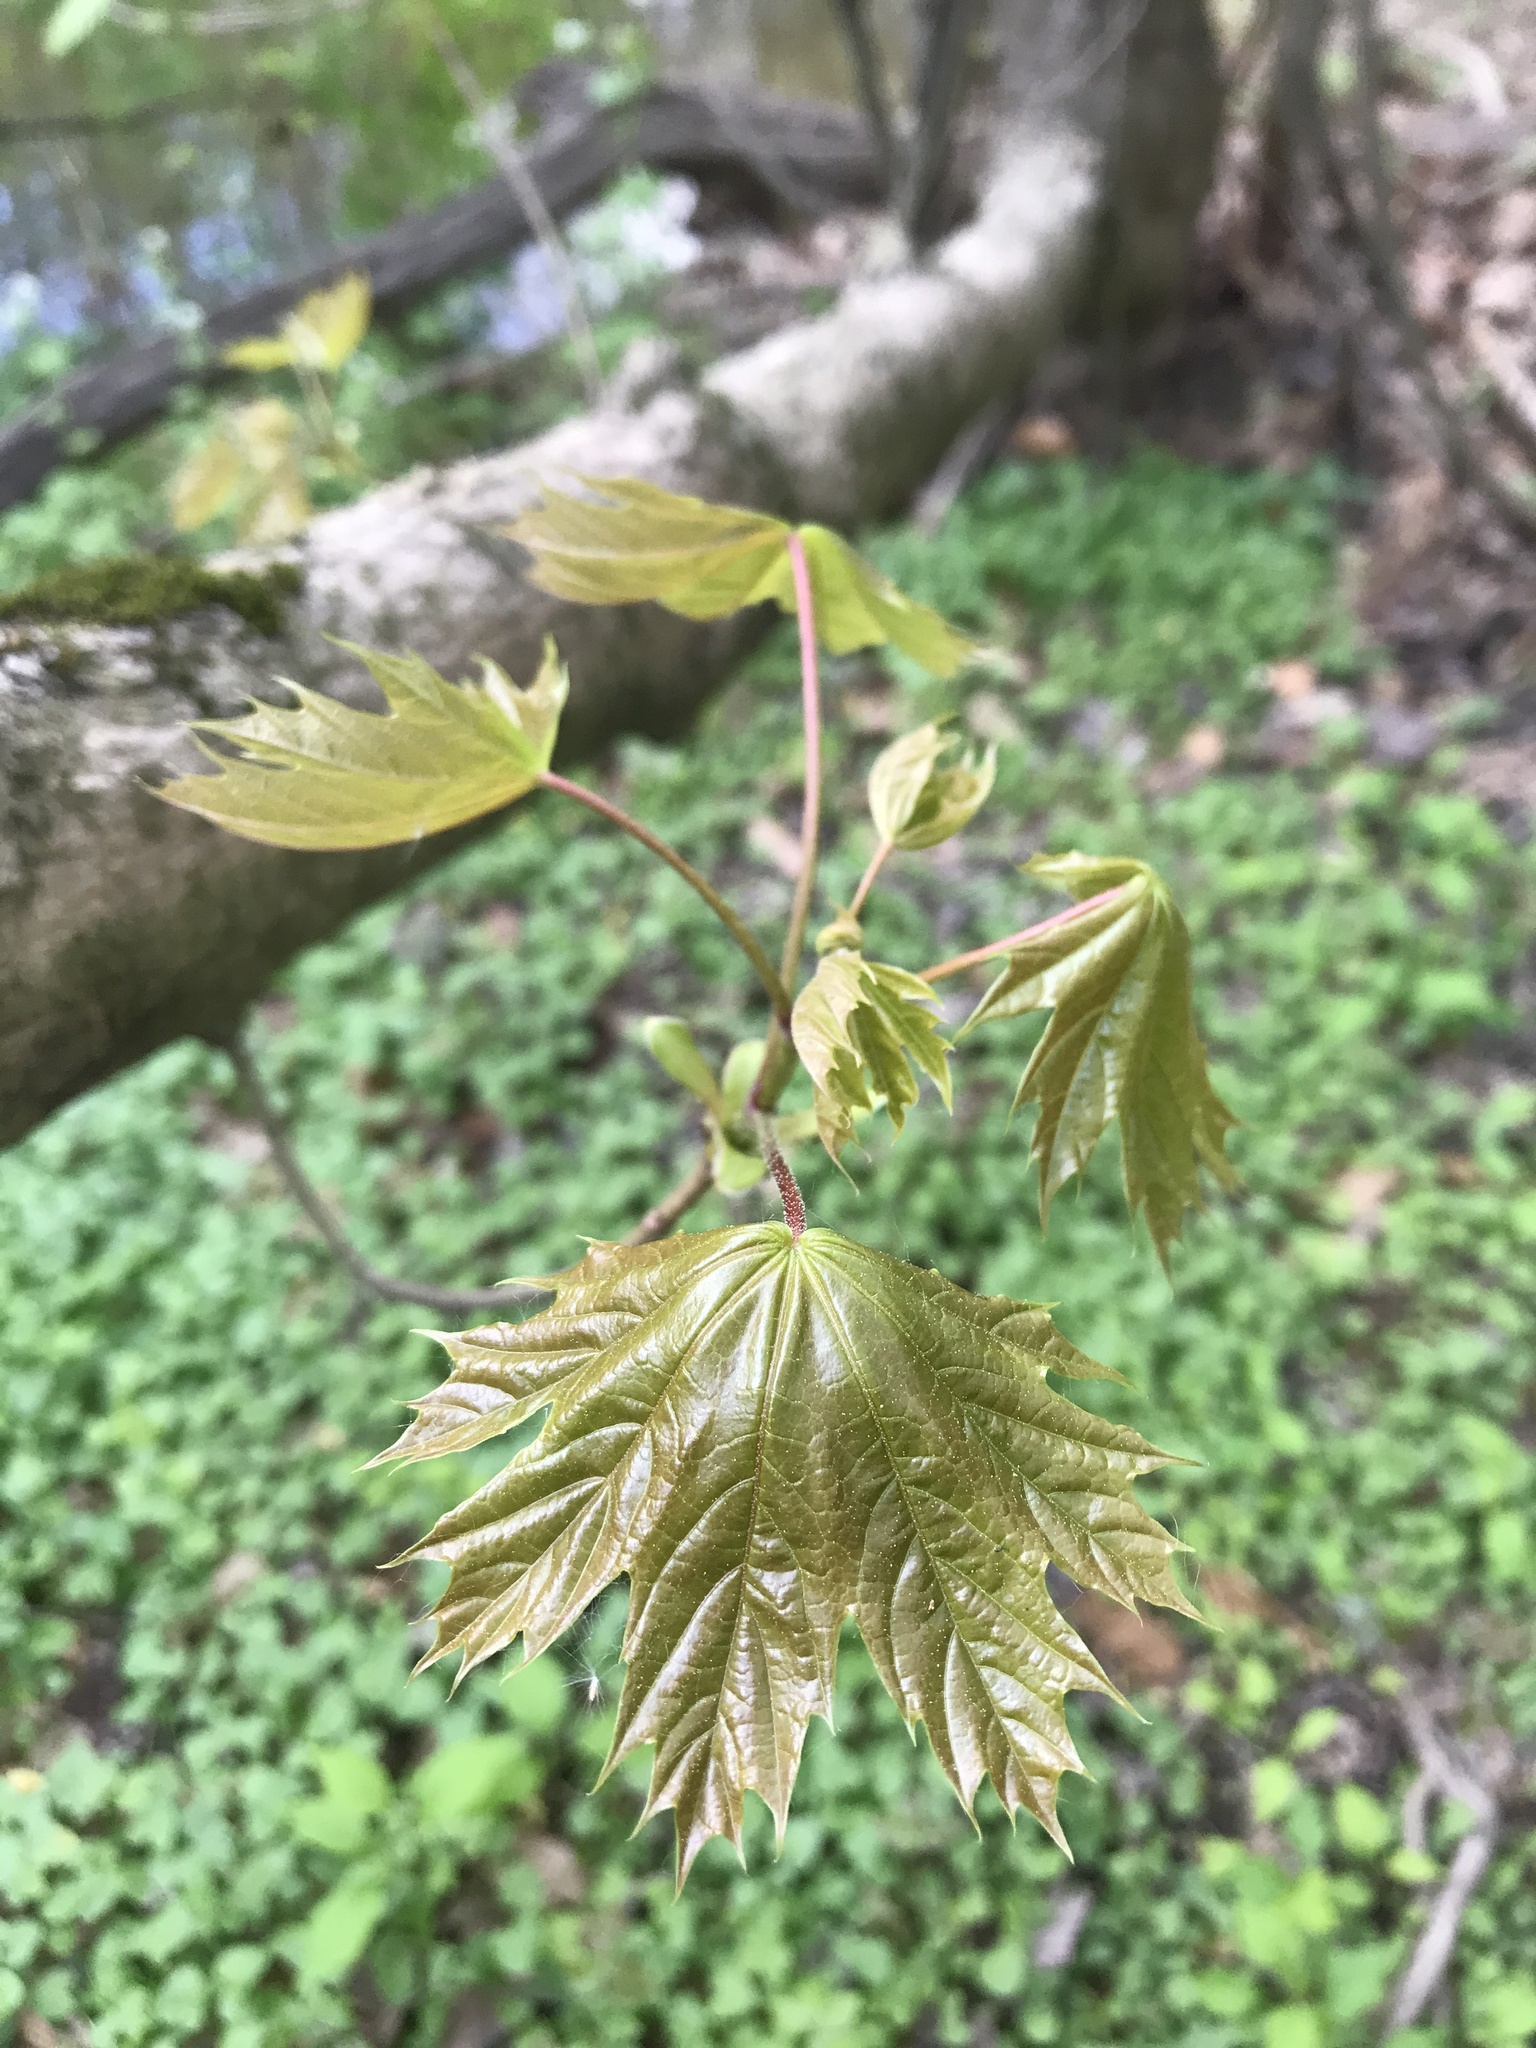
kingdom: Plantae
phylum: Tracheophyta
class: Magnoliopsida
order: Sapindales
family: Sapindaceae
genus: Acer
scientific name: Acer platanoides
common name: Norway maple
